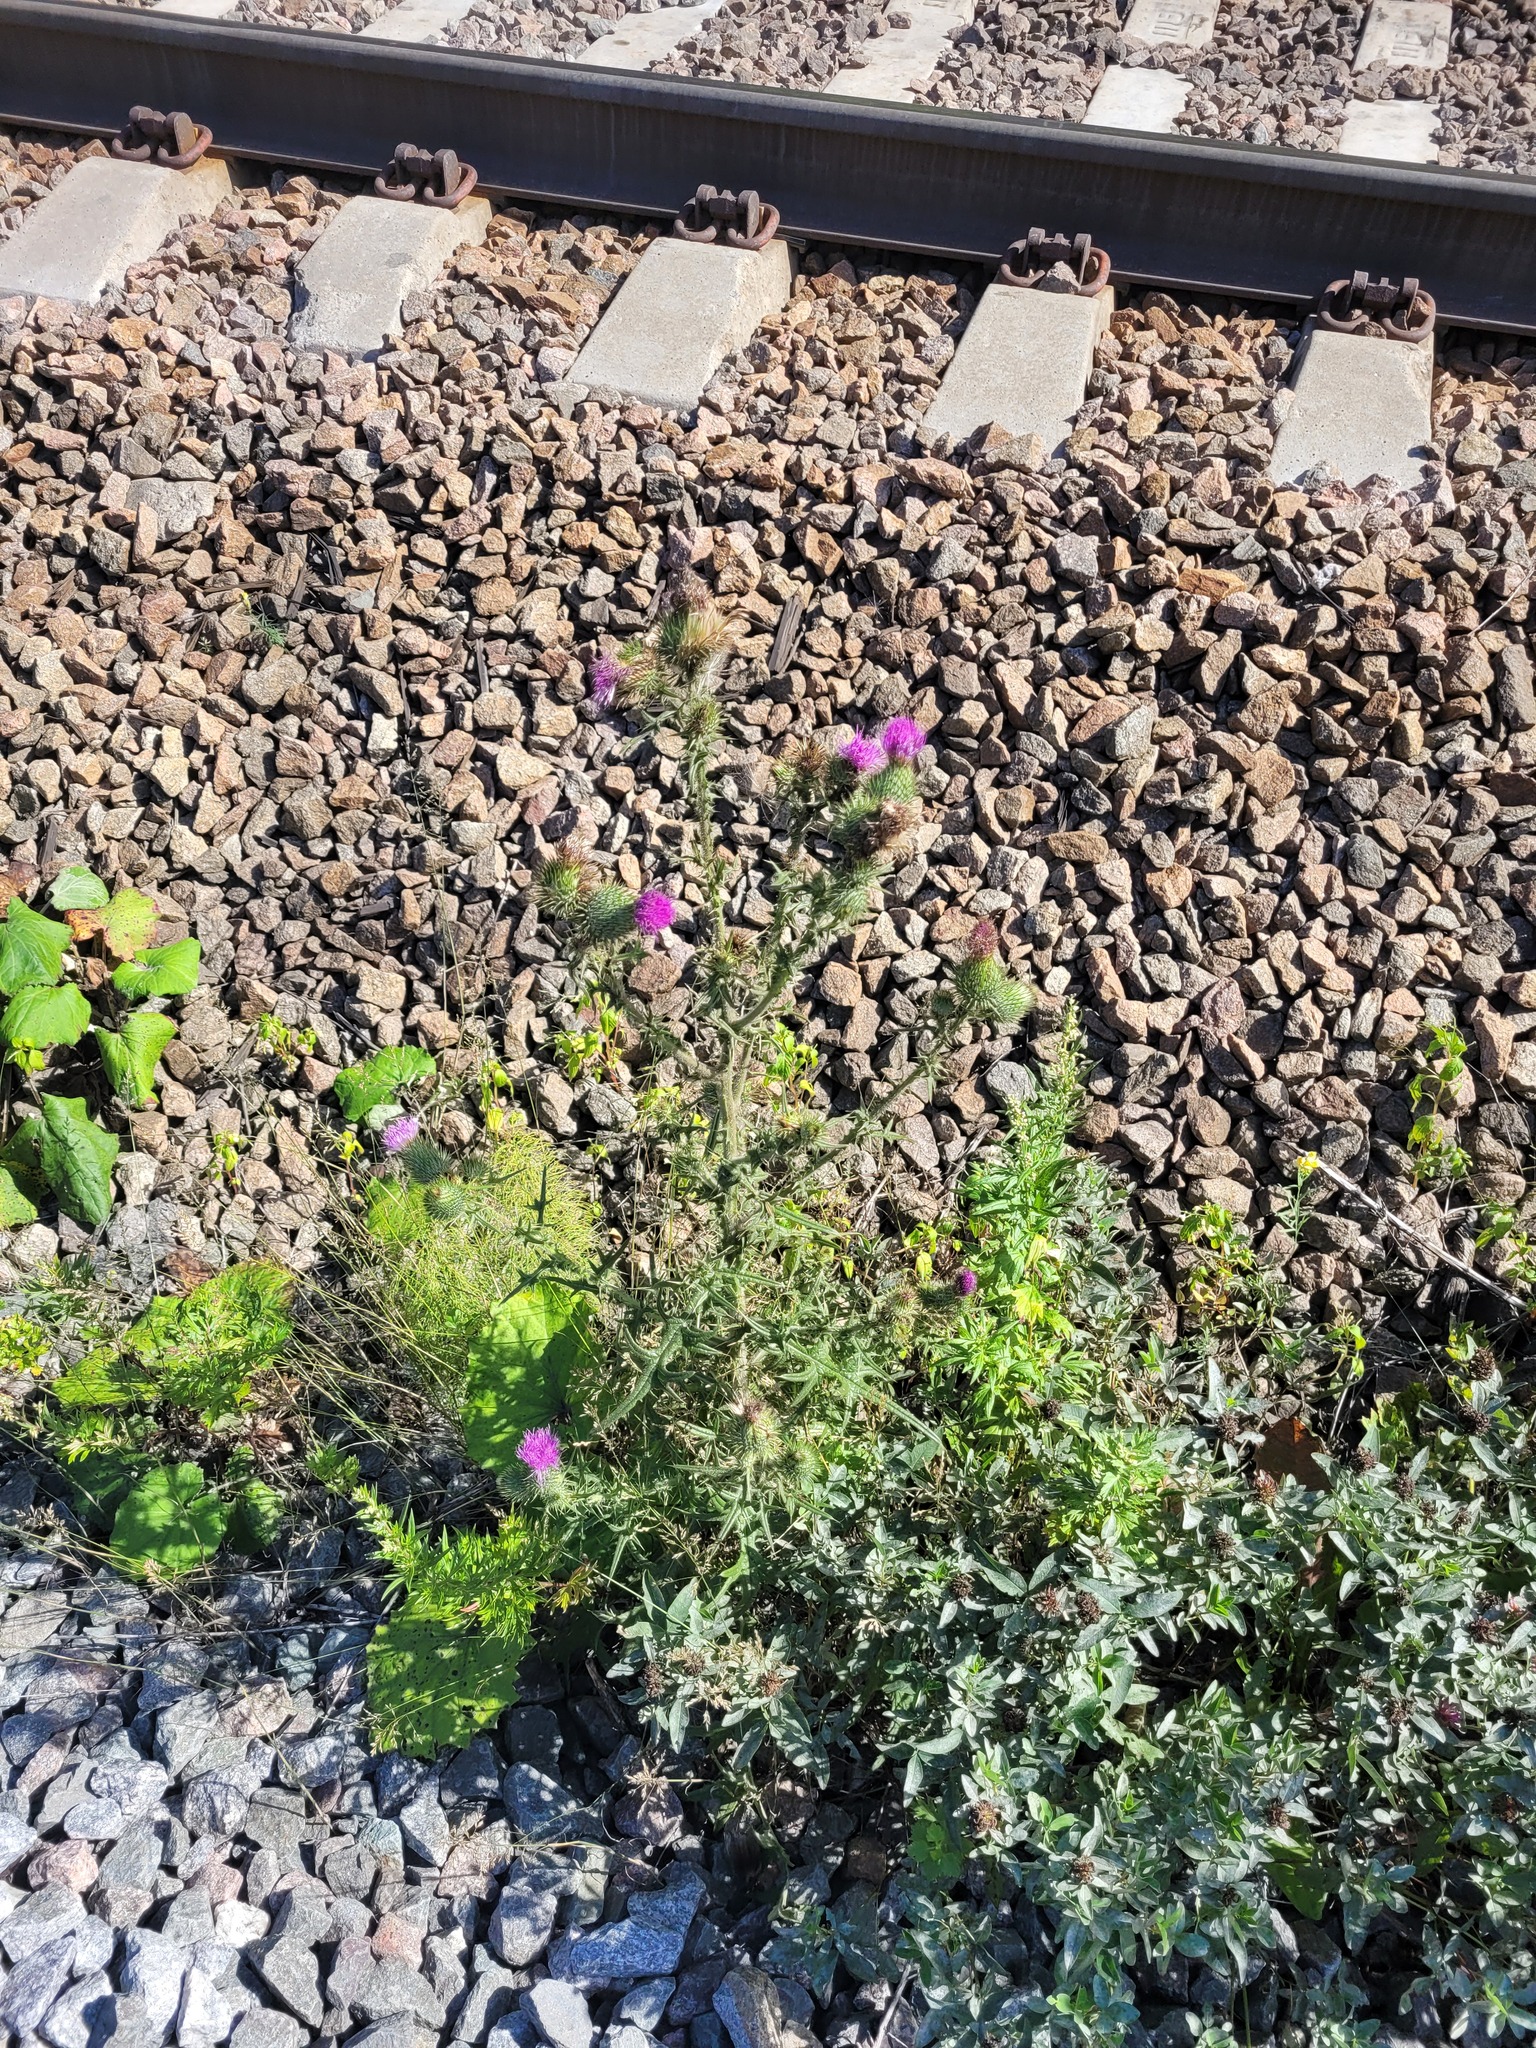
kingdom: Plantae
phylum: Tracheophyta
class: Magnoliopsida
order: Asterales
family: Asteraceae
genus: Cirsium
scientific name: Cirsium vulgare
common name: Bull thistle
